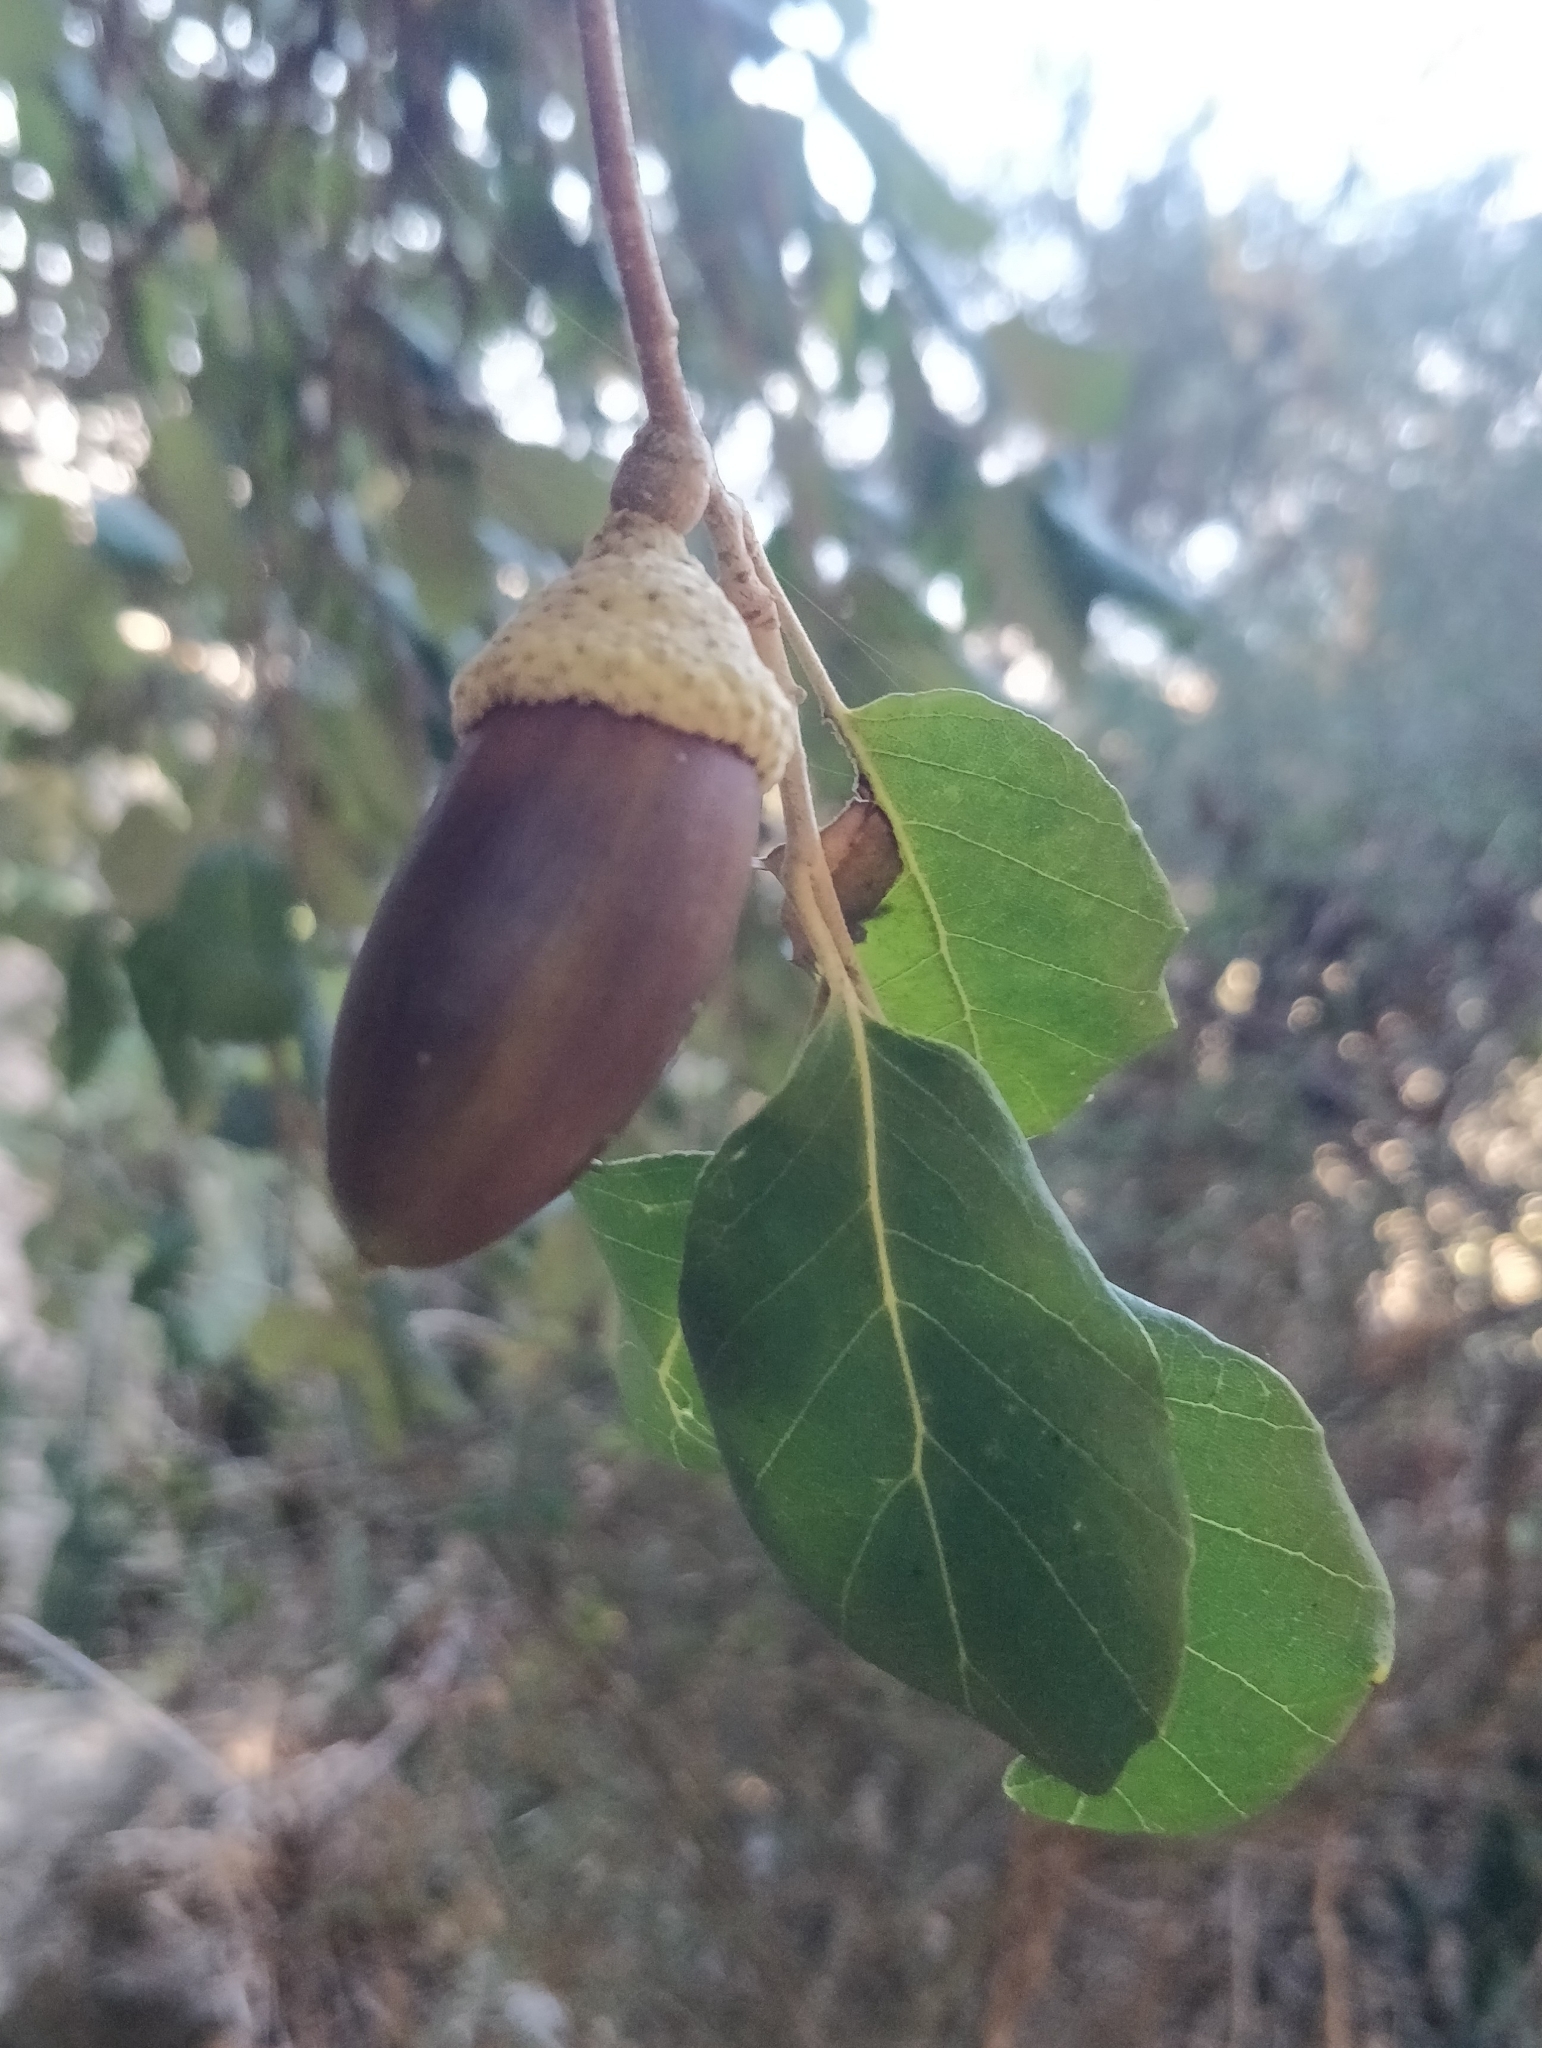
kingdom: Plantae
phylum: Tracheophyta
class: Magnoliopsida
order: Fagales
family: Fagaceae
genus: Quercus
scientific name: Quercus suber
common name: Cork oak
